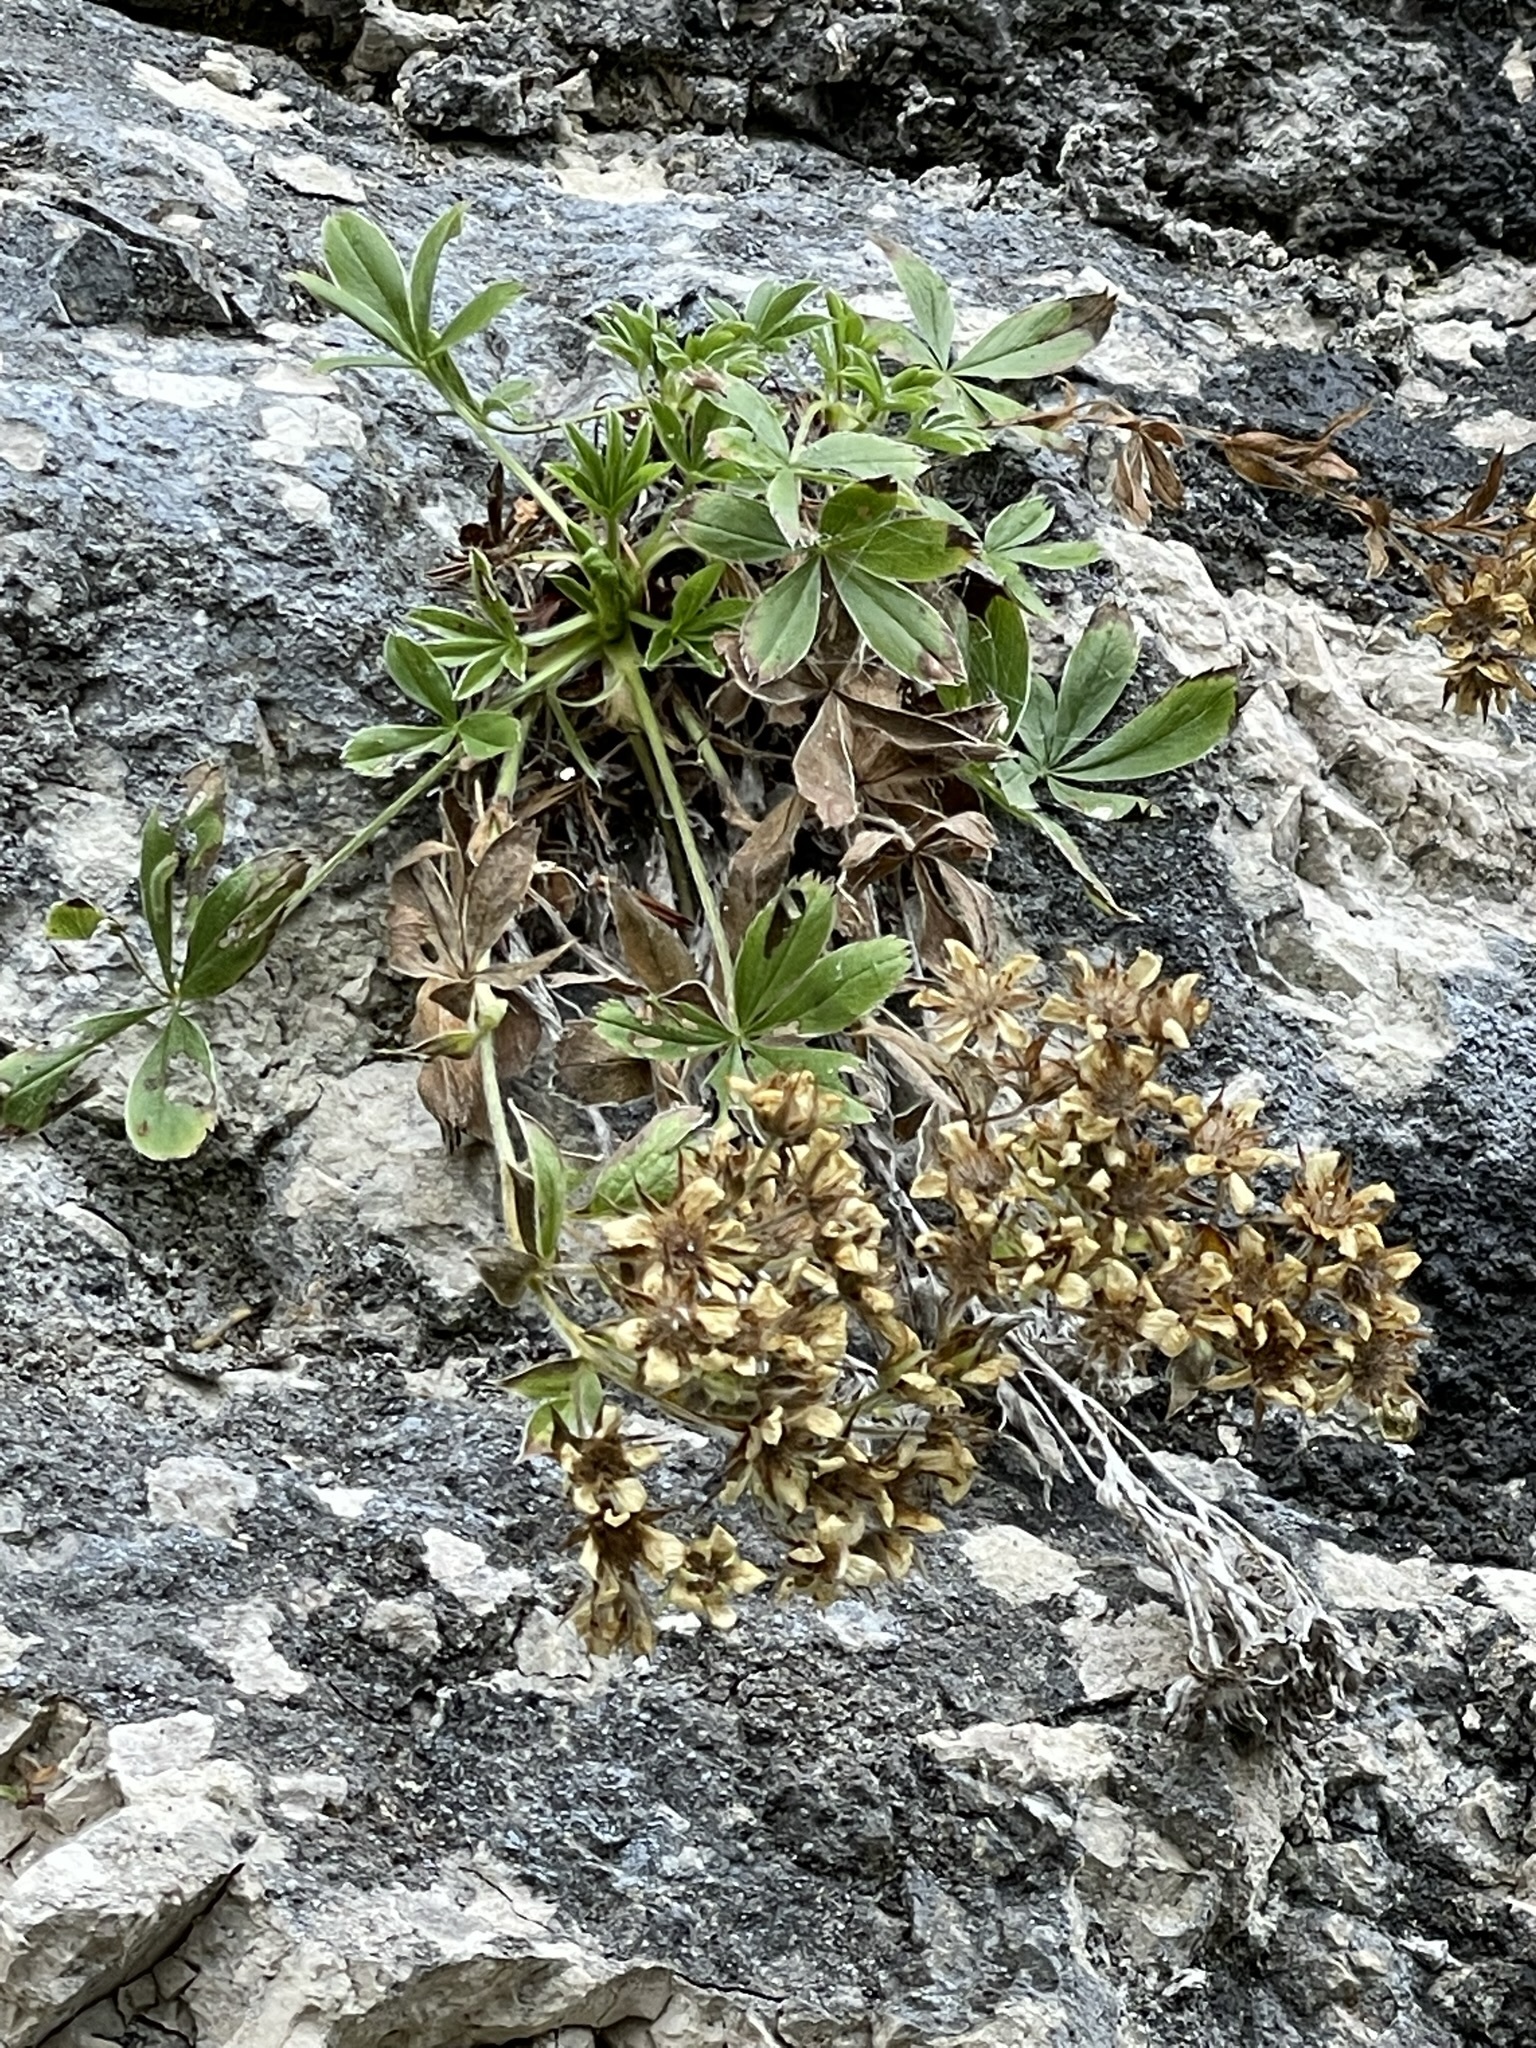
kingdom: Plantae
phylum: Tracheophyta
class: Magnoliopsida
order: Rosales
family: Rosaceae
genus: Potentilla
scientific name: Potentilla caulescens
